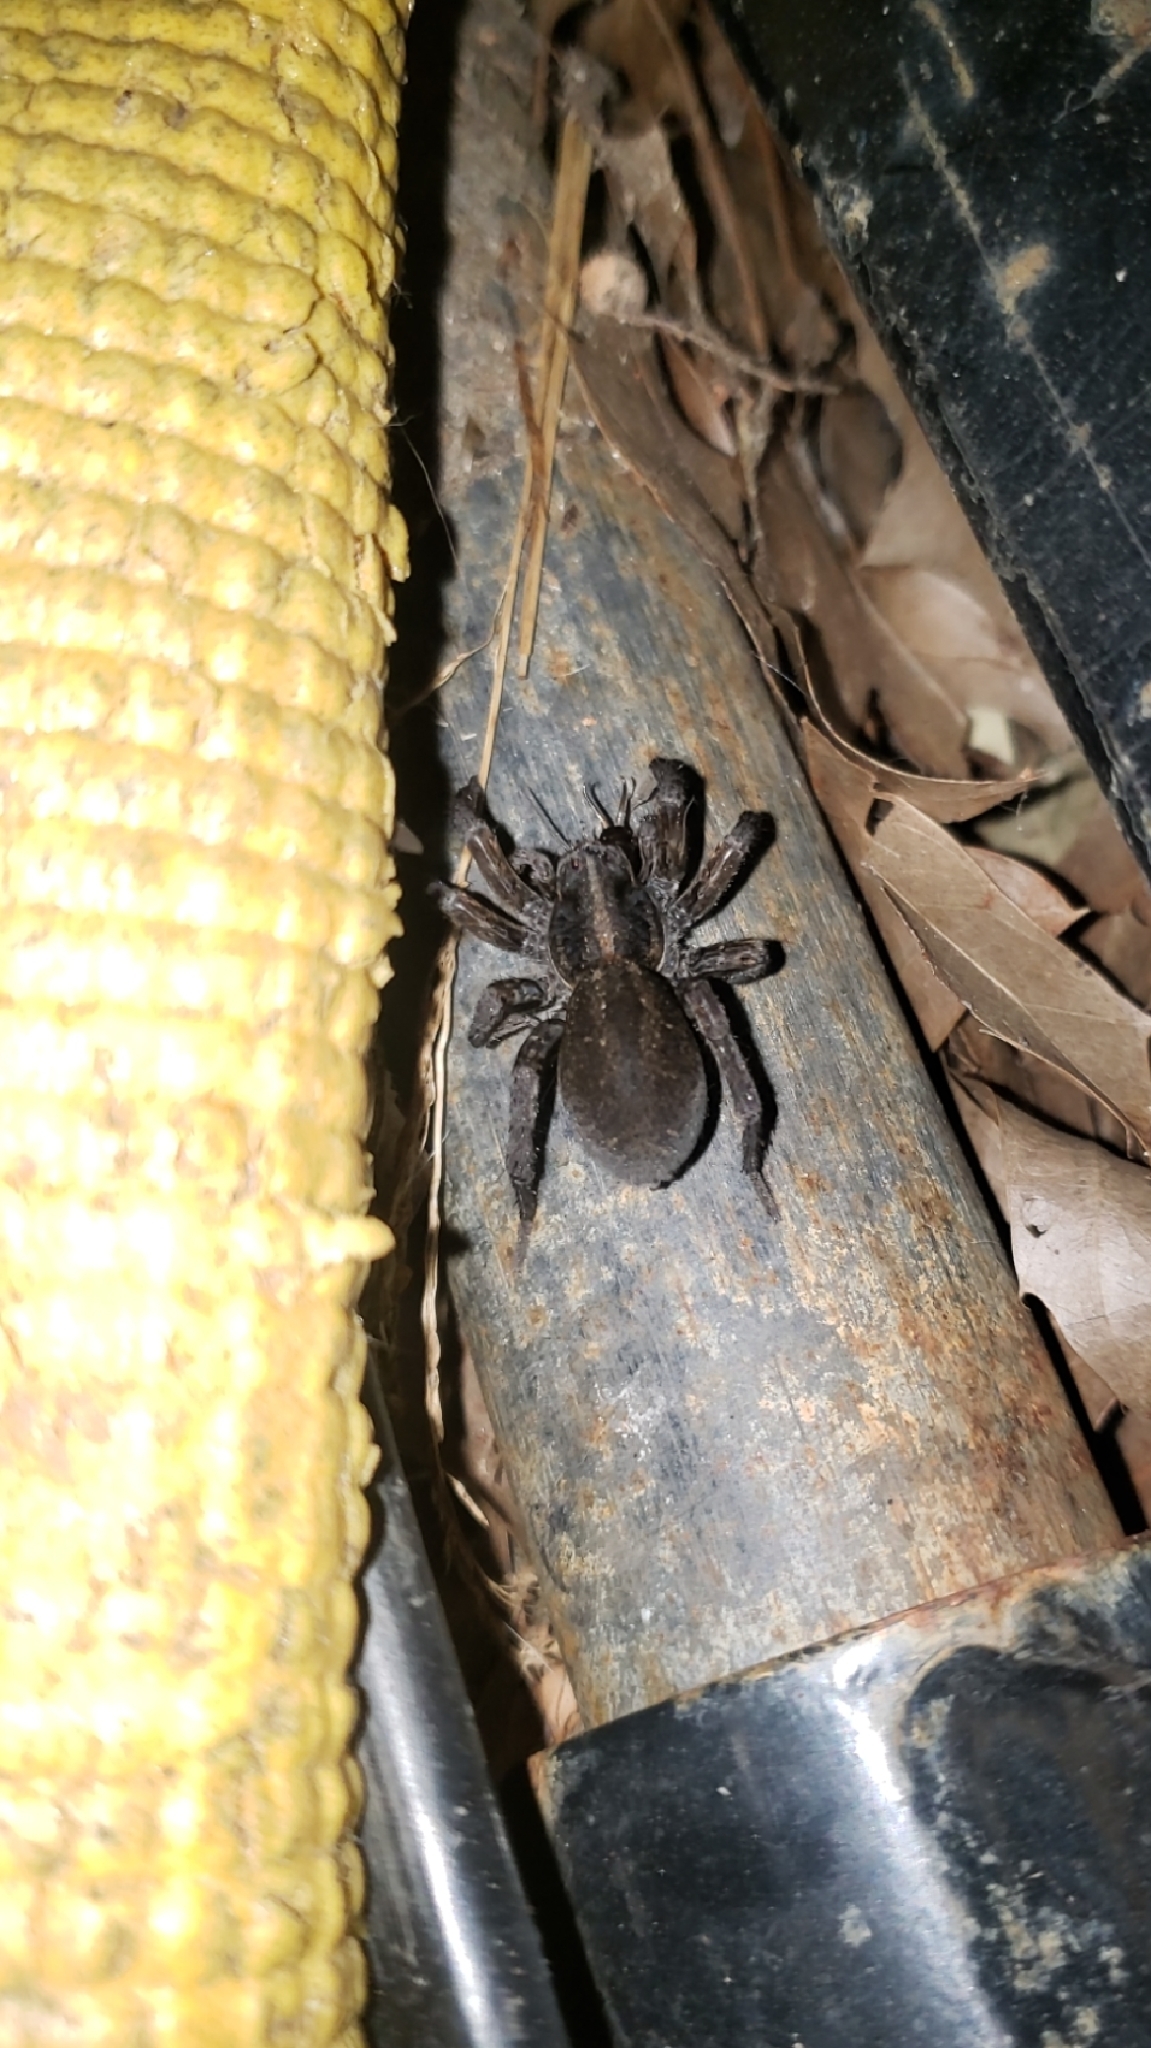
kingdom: Animalia
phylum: Arthropoda
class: Arachnida
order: Araneae
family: Lycosidae
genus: Tigrosa
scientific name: Tigrosa helluo
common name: Wetland giant wolf spider
